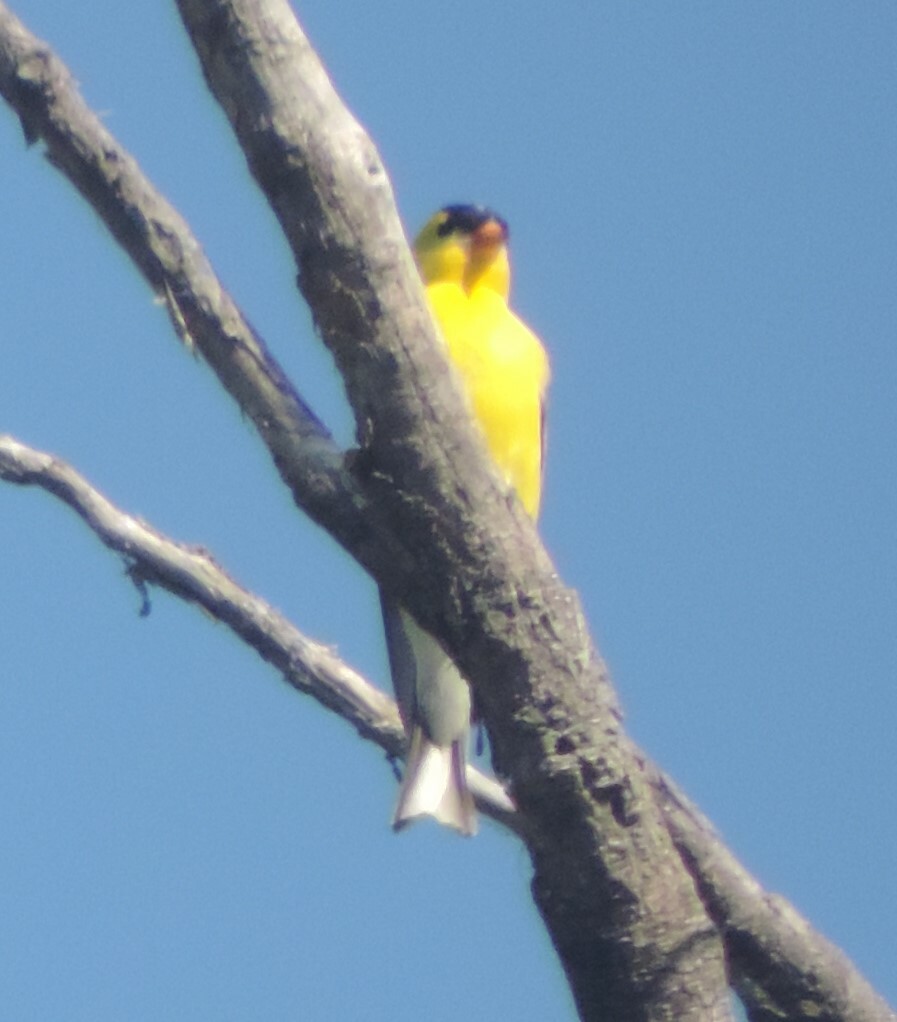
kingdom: Animalia
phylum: Chordata
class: Aves
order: Passeriformes
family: Fringillidae
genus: Spinus
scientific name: Spinus tristis
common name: American goldfinch
